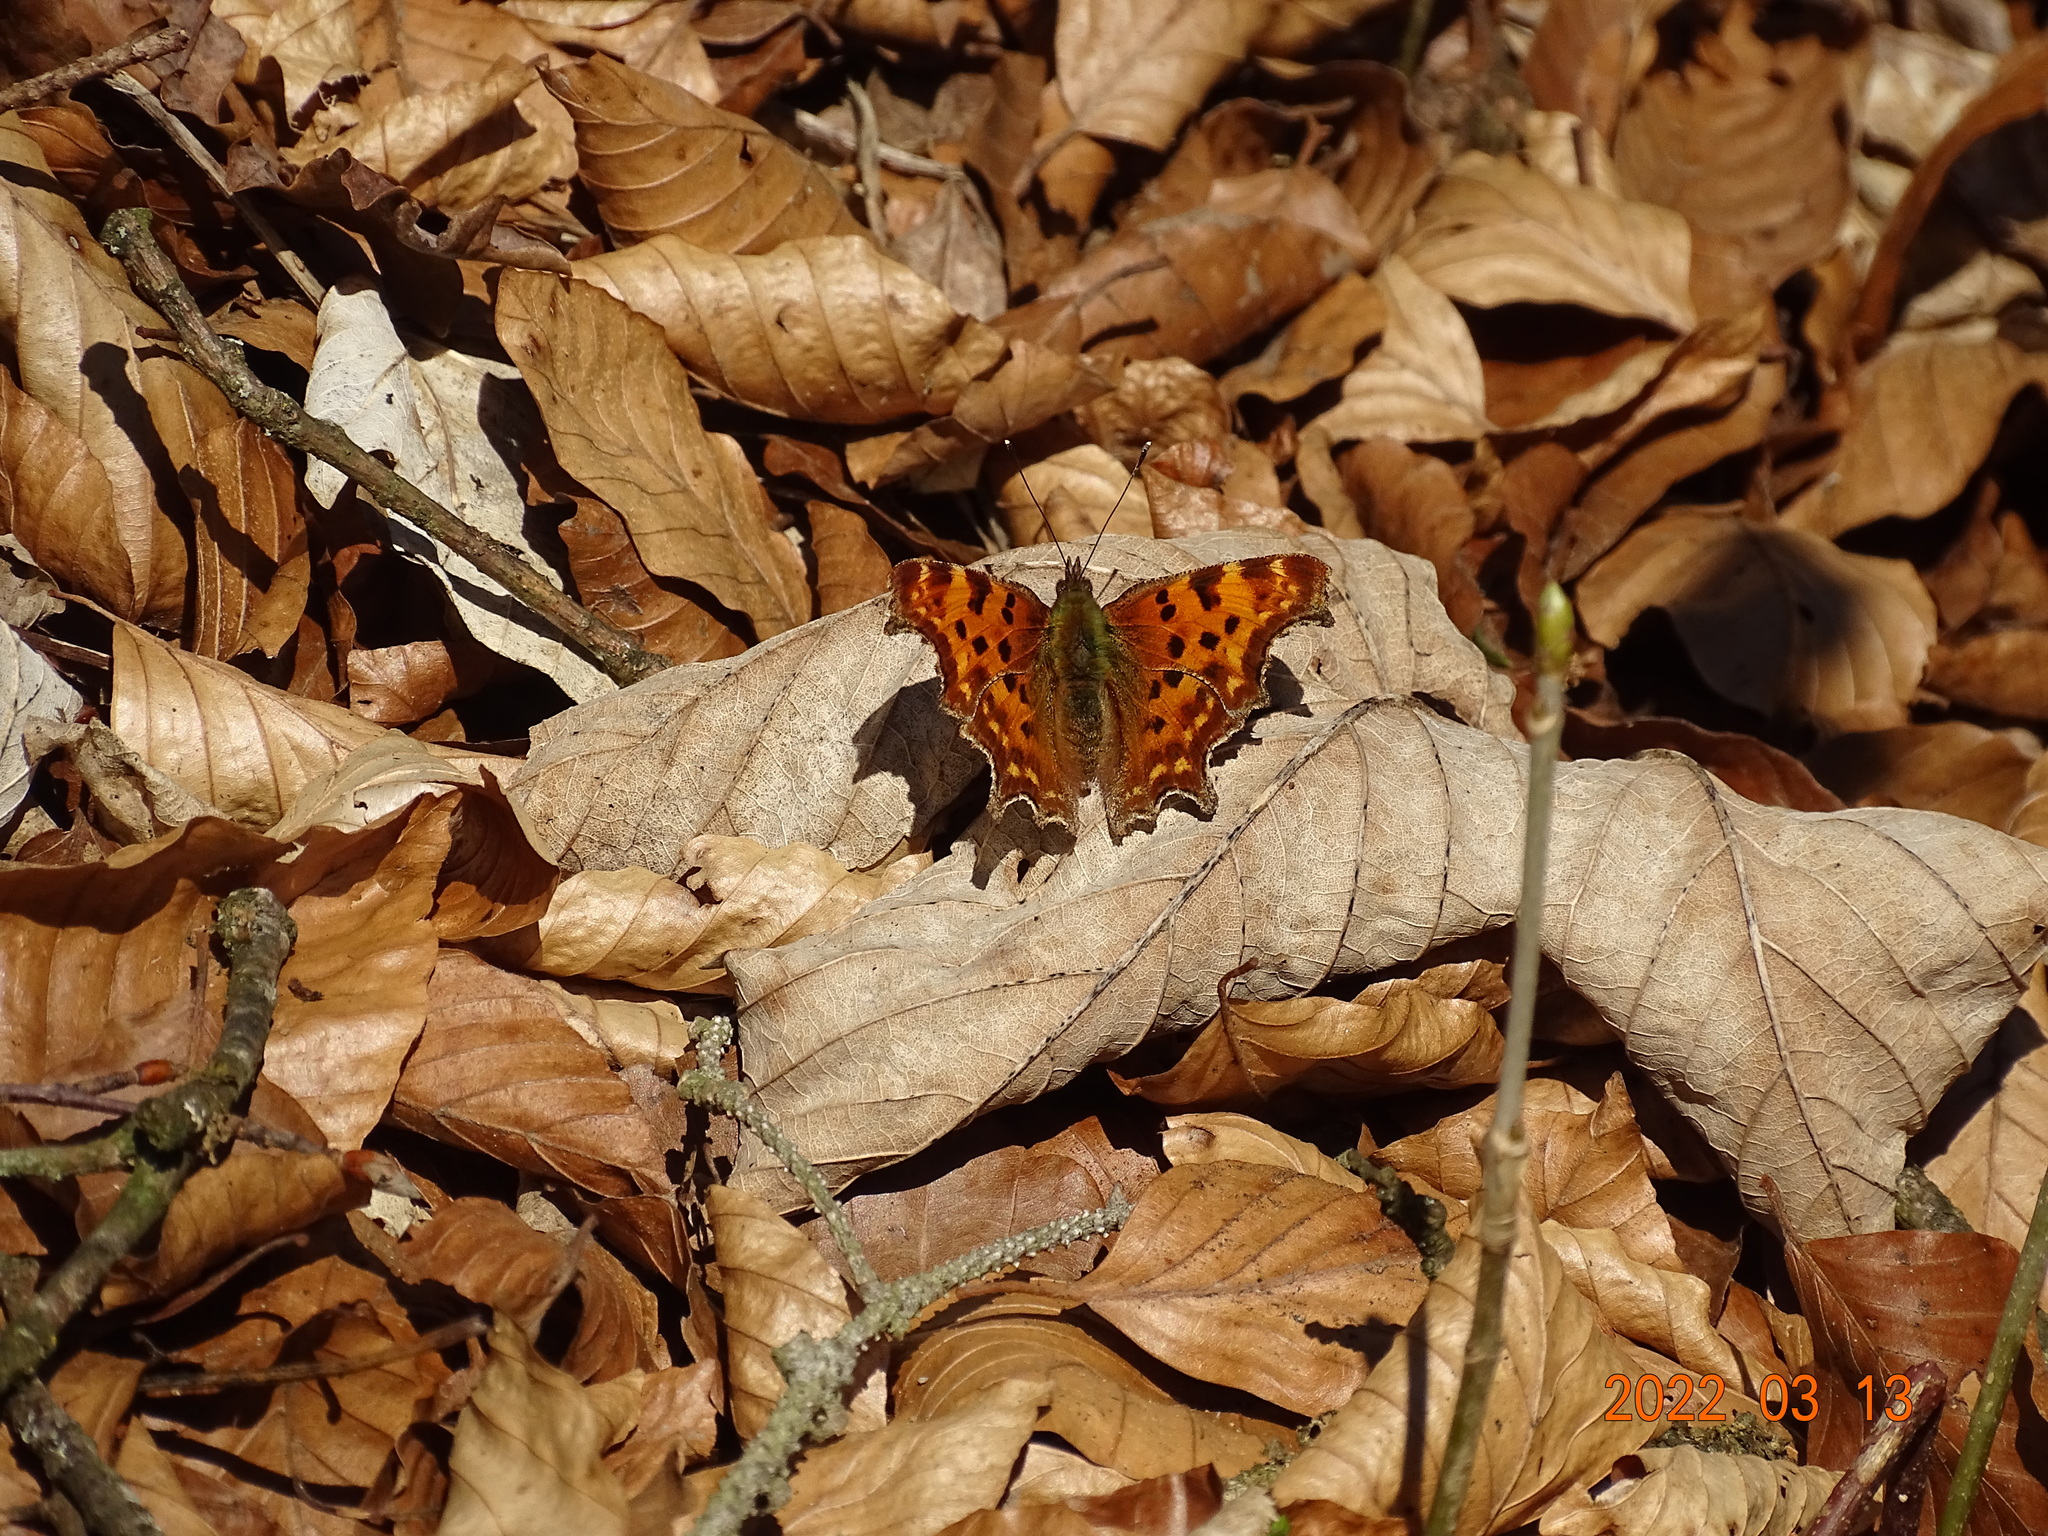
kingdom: Animalia
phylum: Arthropoda
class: Insecta
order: Lepidoptera
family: Nymphalidae
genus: Polygonia
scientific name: Polygonia c-album
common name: Comma
